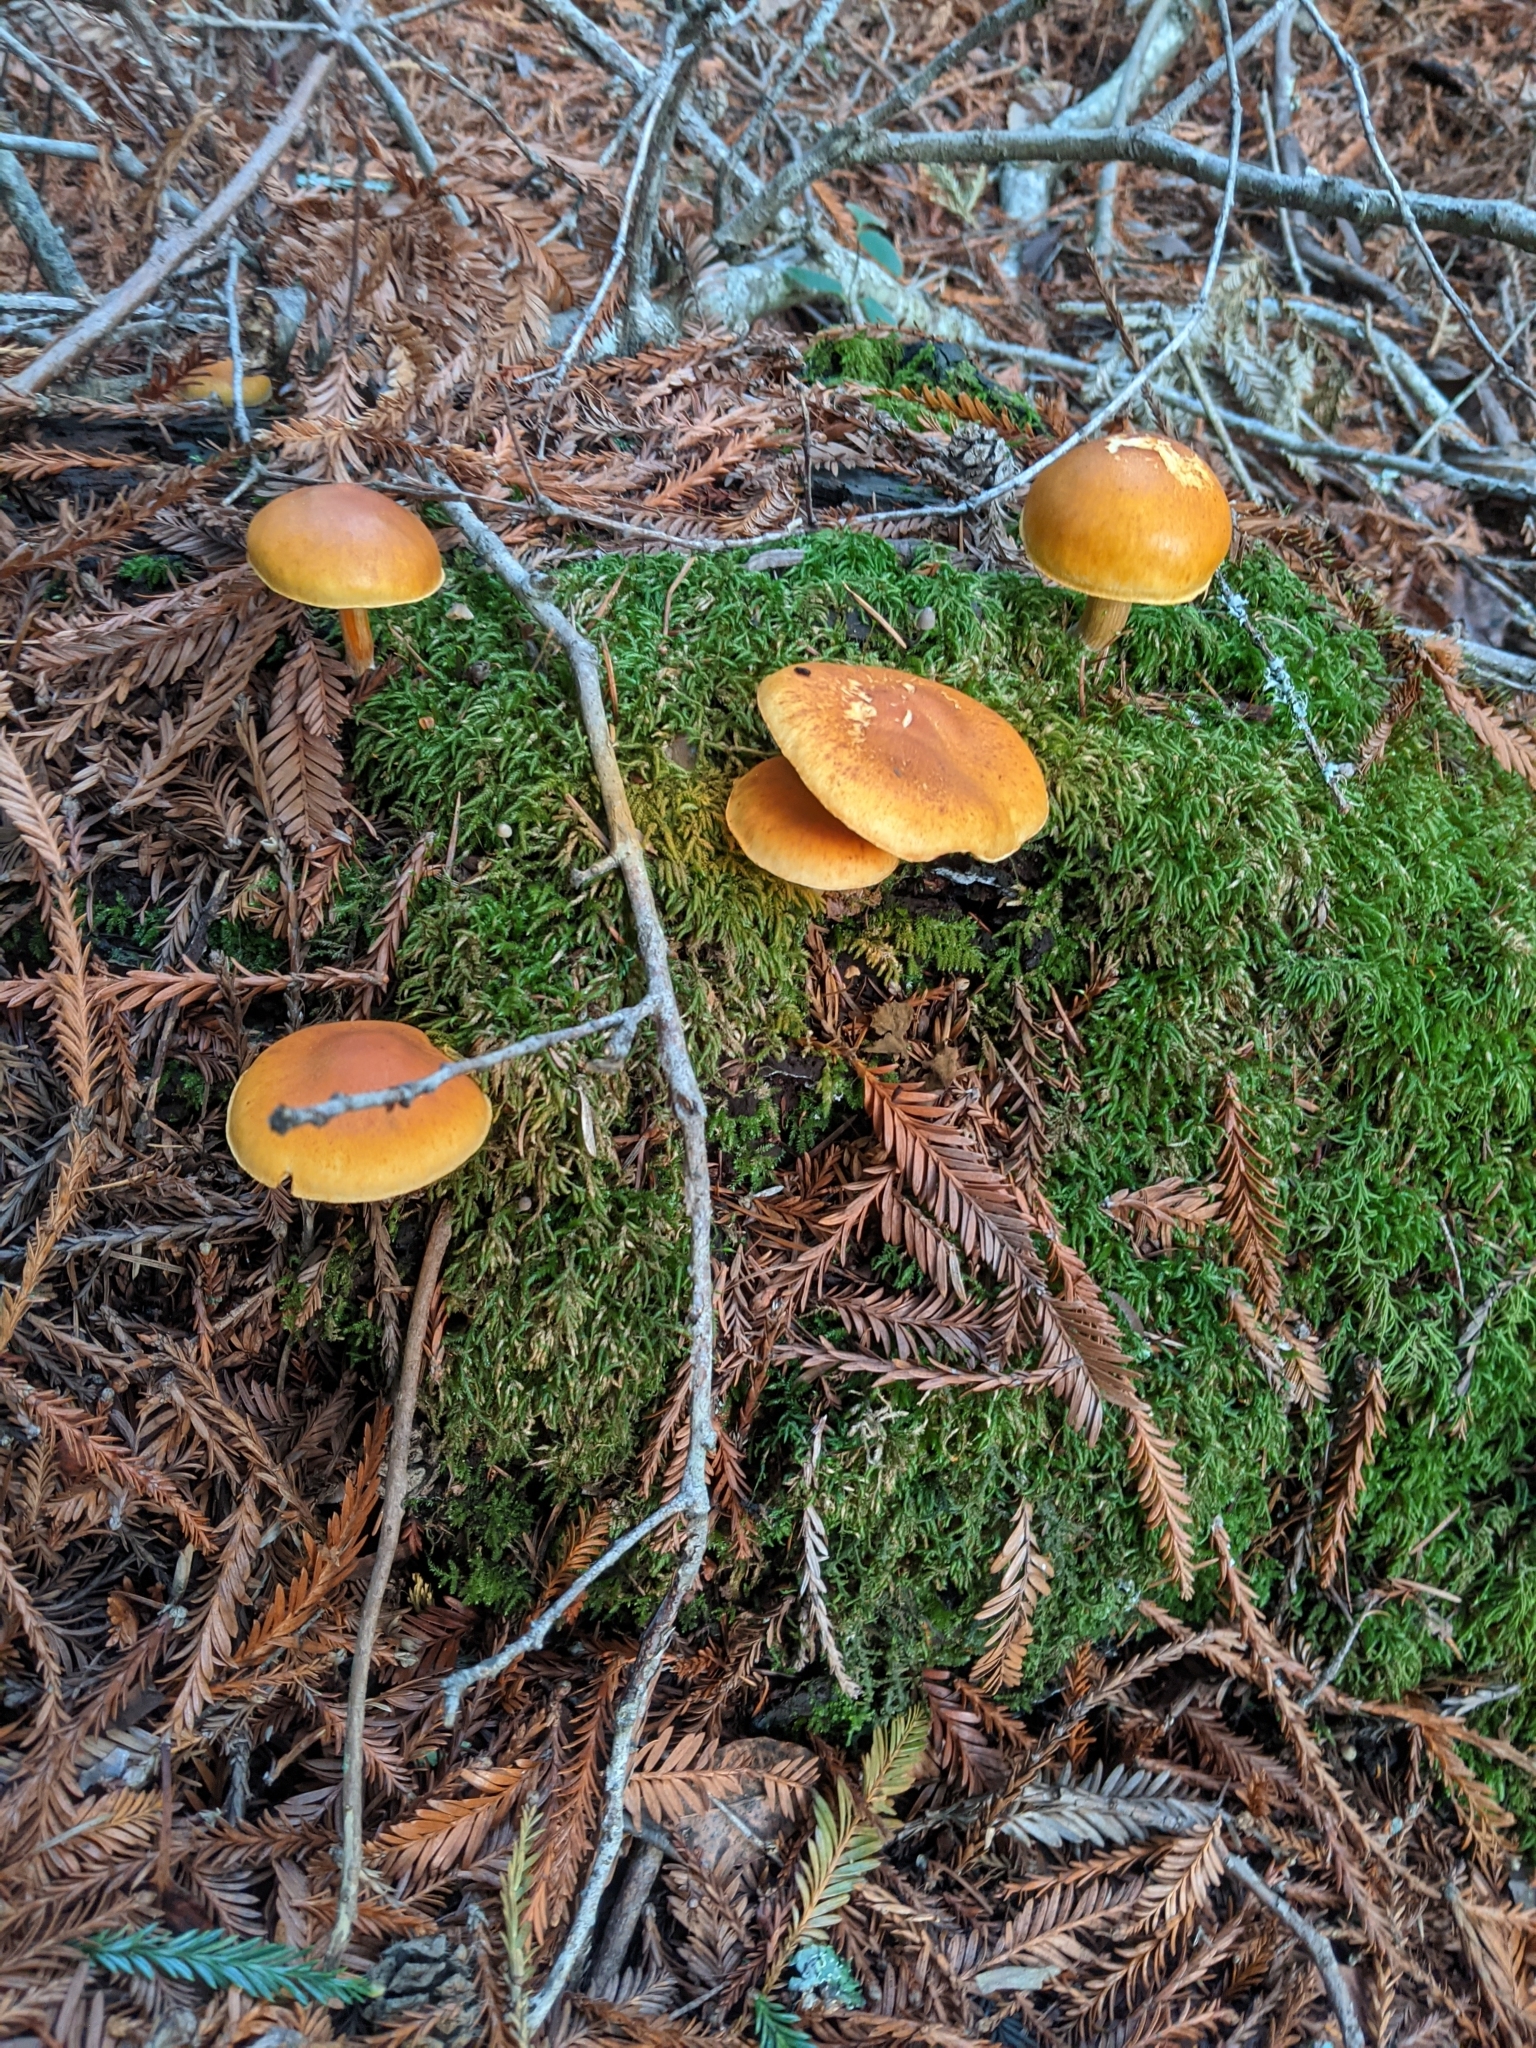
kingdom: Fungi
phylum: Basidiomycota
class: Agaricomycetes
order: Agaricales
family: Hymenogastraceae
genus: Gymnopilus
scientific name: Gymnopilus aurantiophyllus
